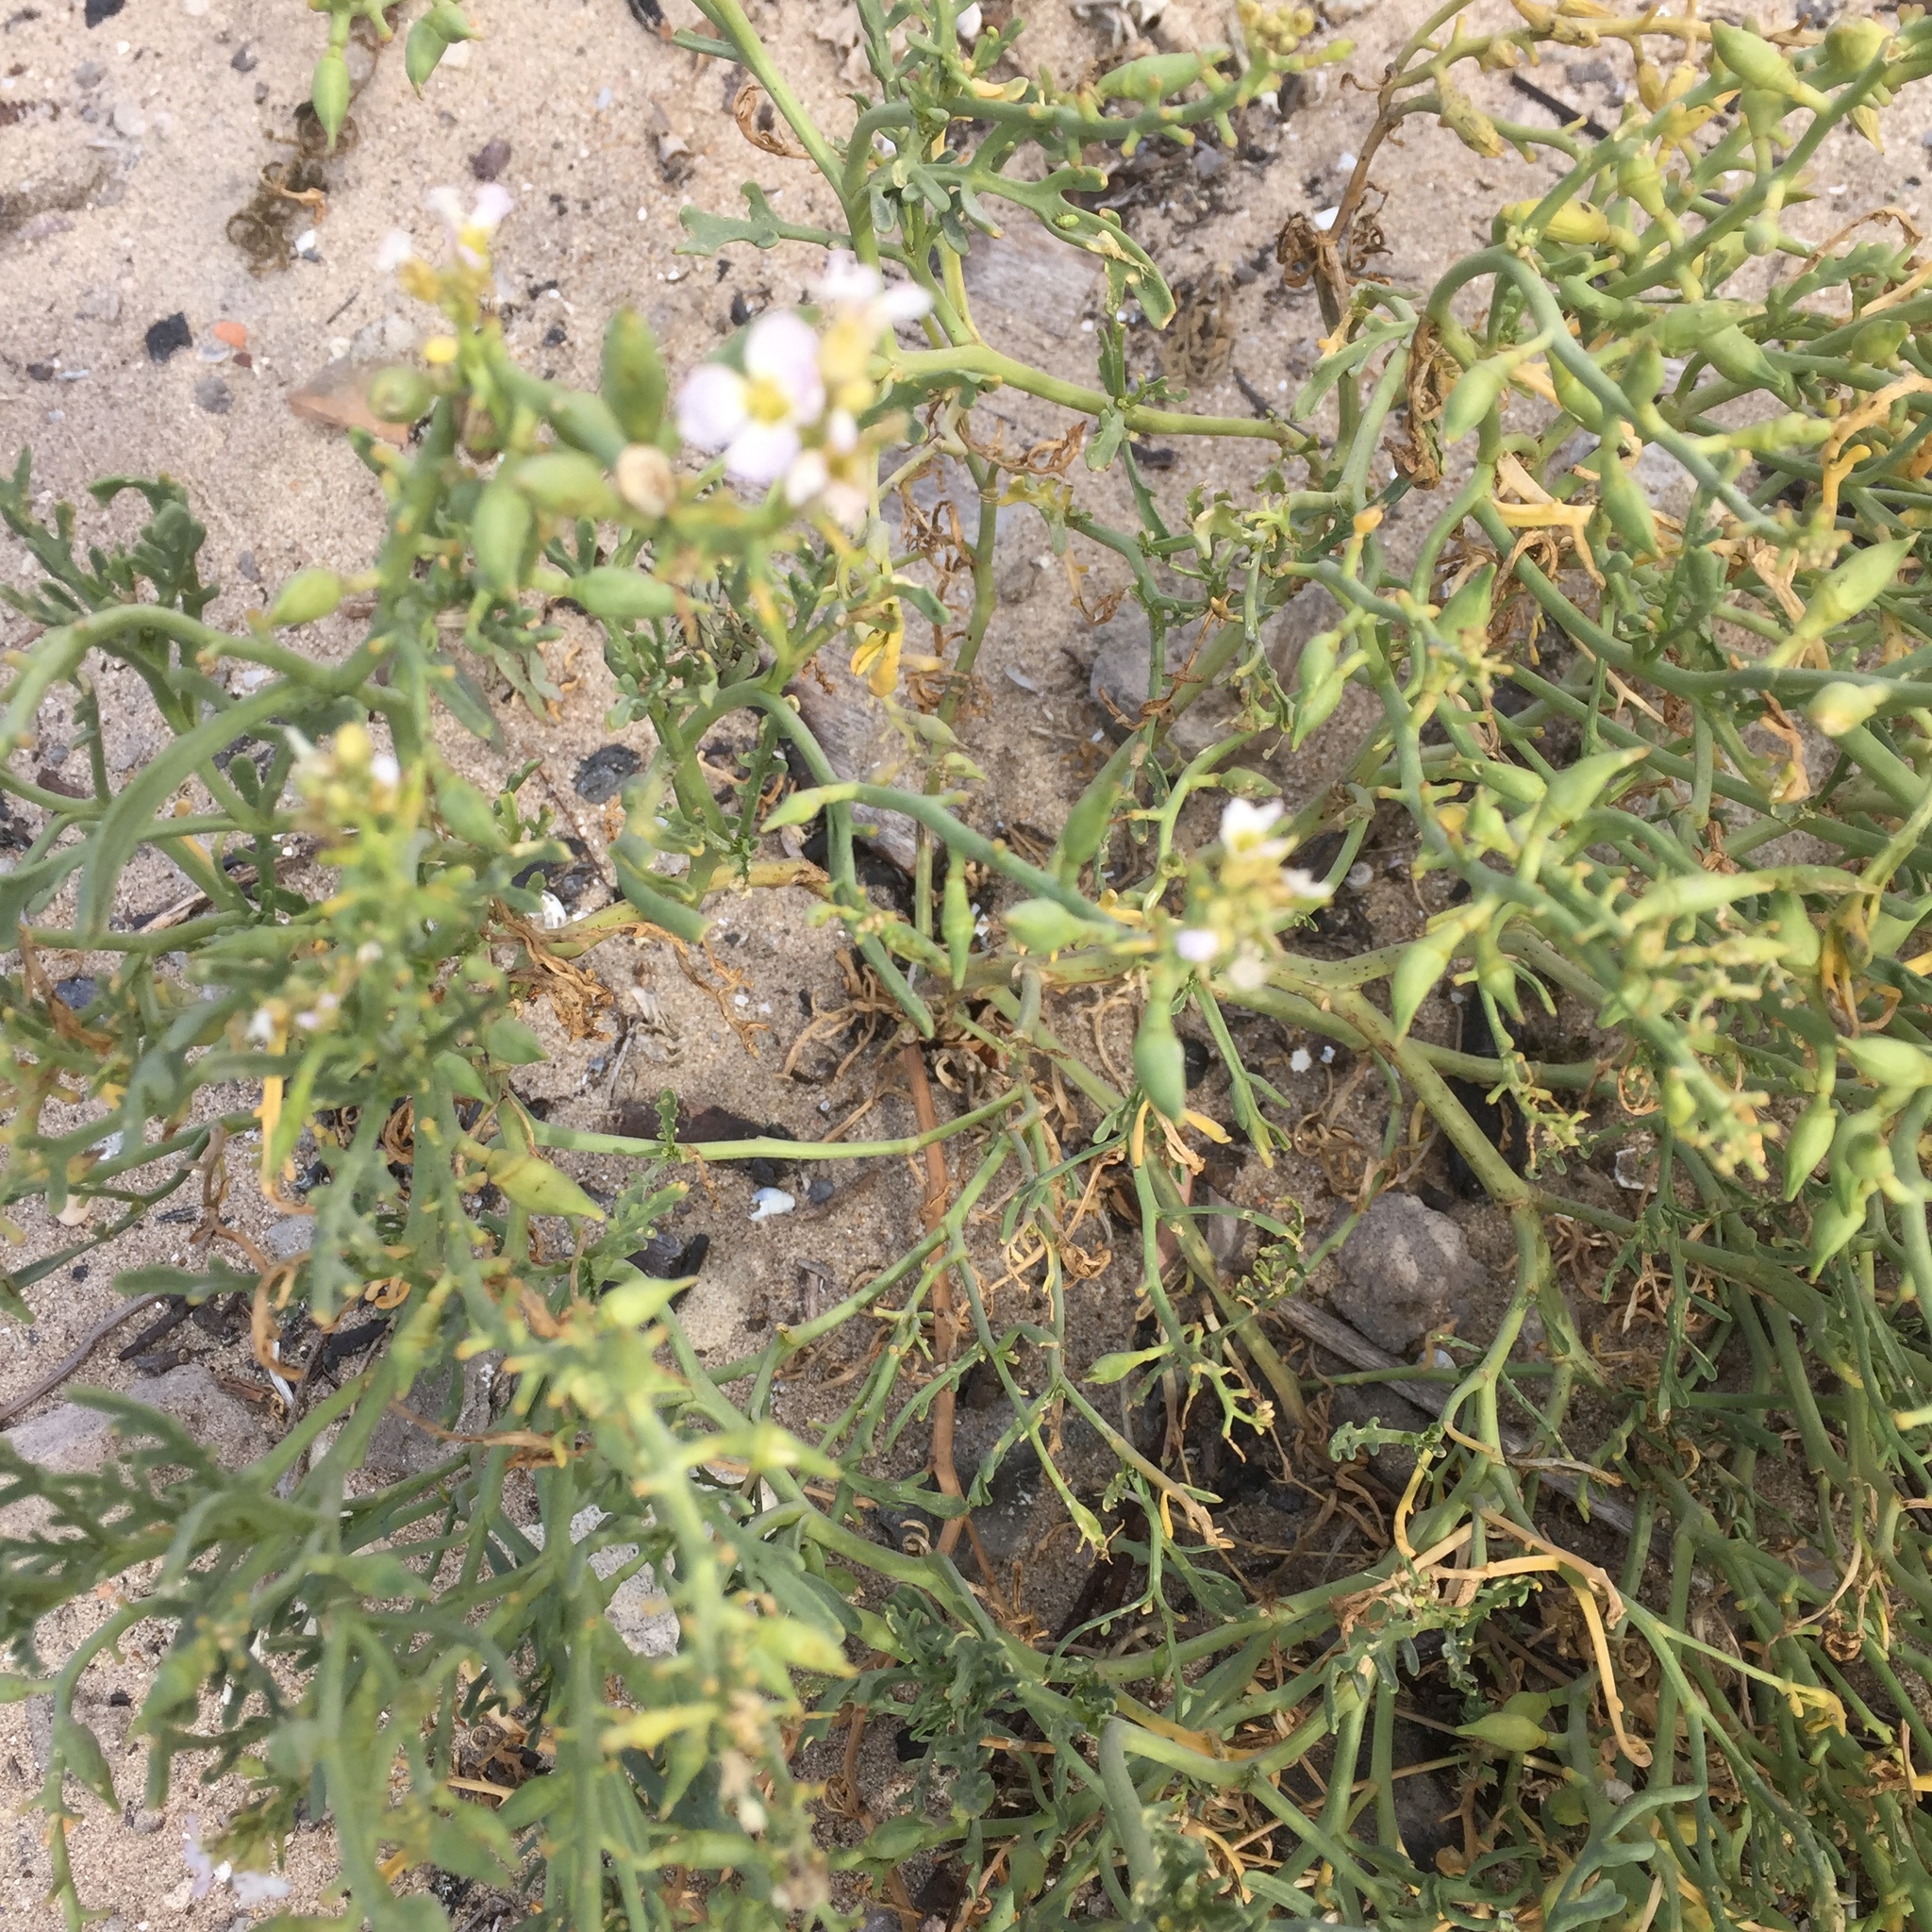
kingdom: Plantae
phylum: Tracheophyta
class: Magnoliopsida
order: Brassicales
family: Brassicaceae
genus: Cakile
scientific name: Cakile maritima
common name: Sea rocket
